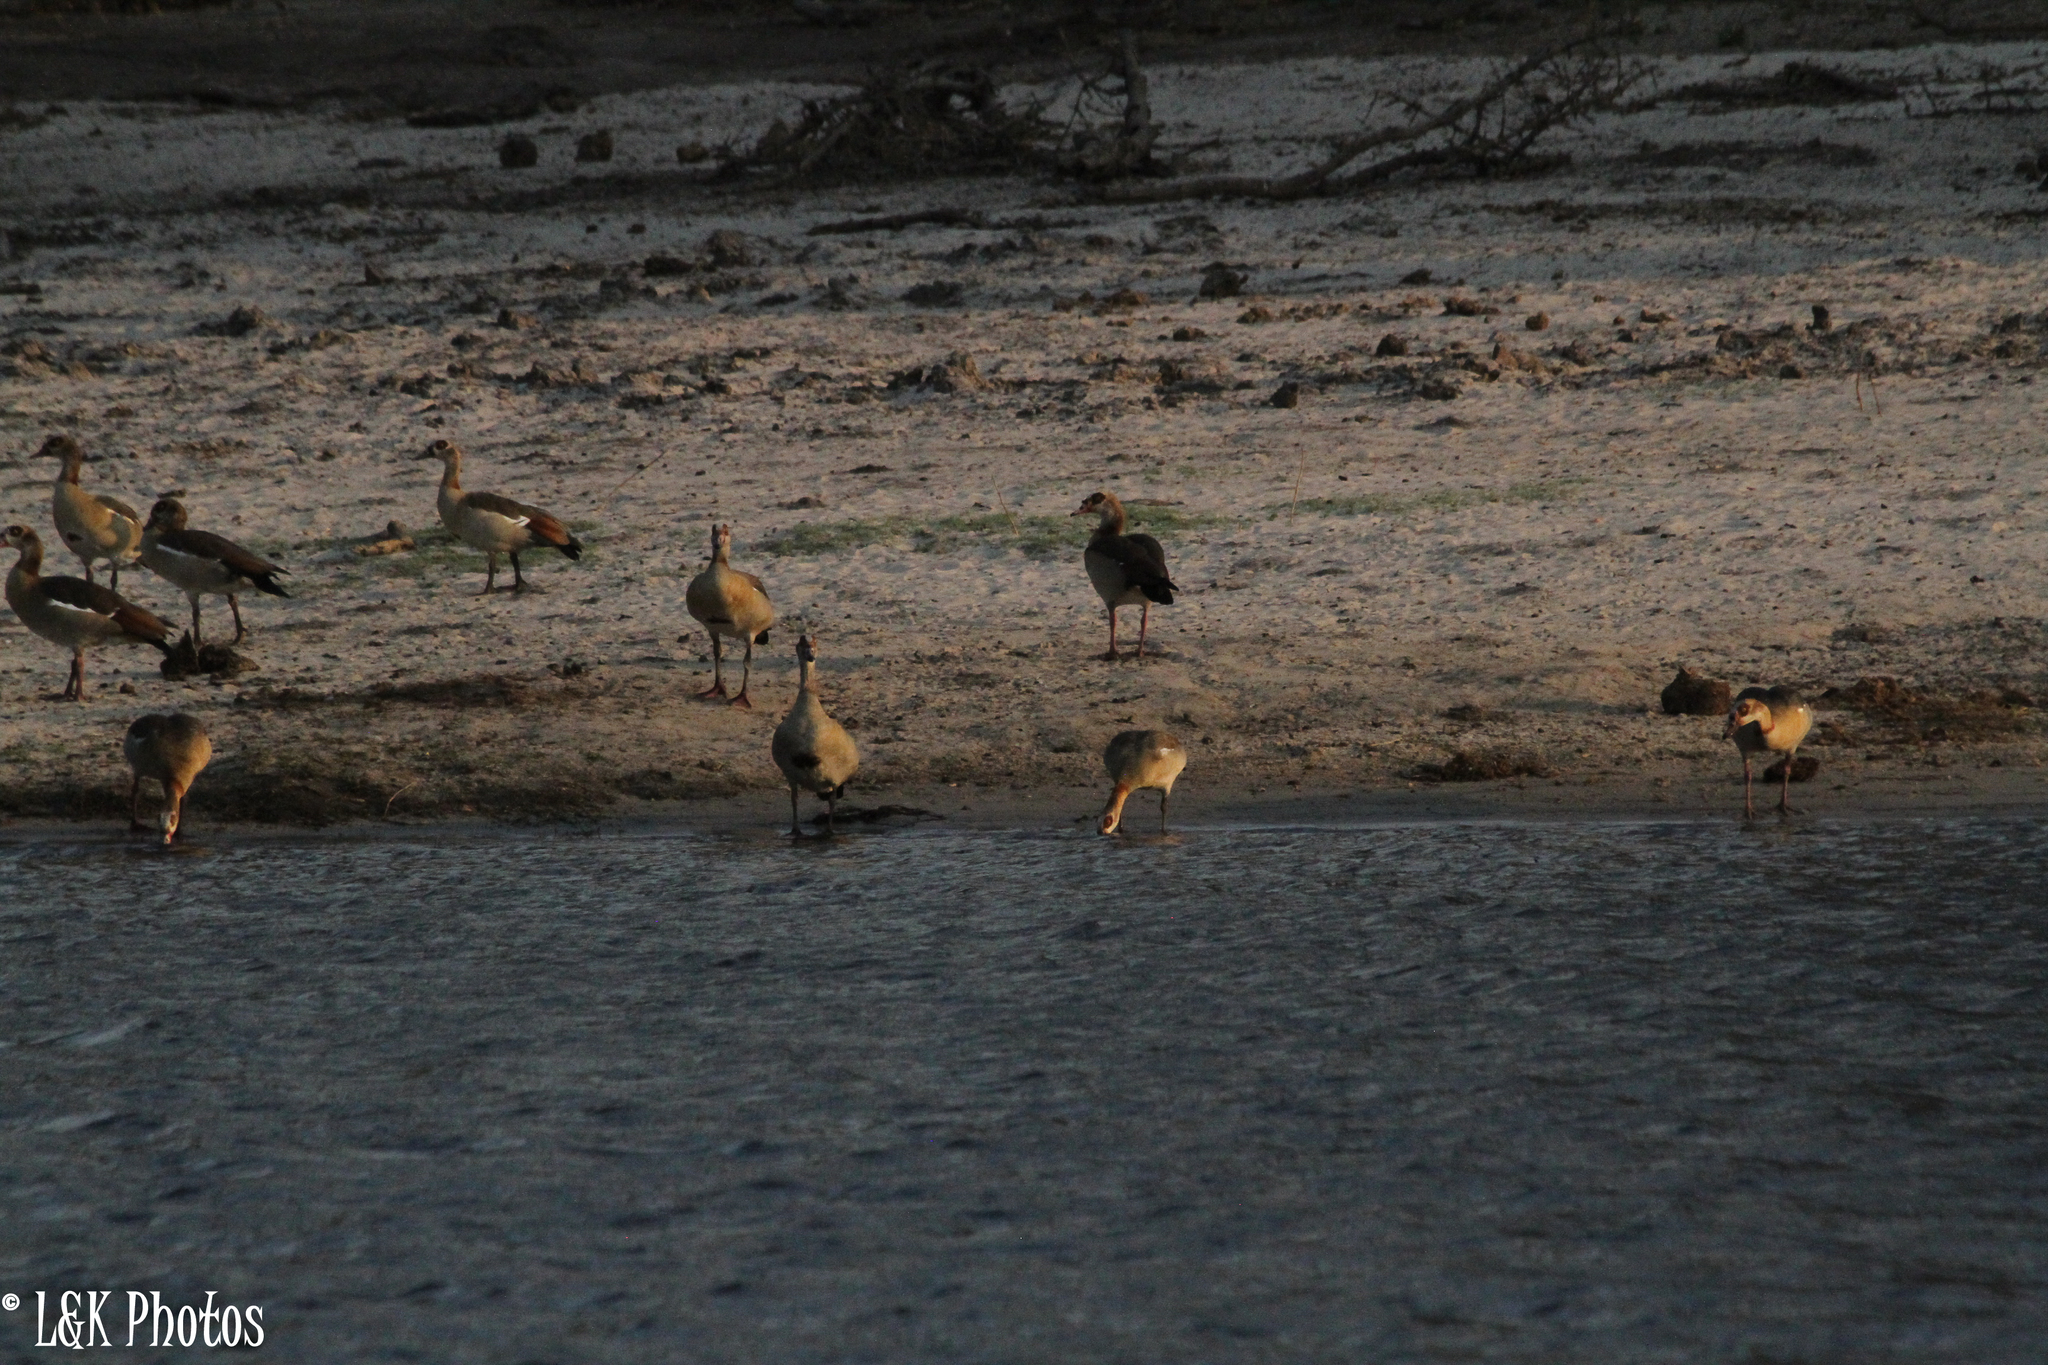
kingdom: Animalia
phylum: Chordata
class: Aves
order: Anseriformes
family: Anatidae
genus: Alopochen
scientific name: Alopochen aegyptiaca
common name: Egyptian goose
